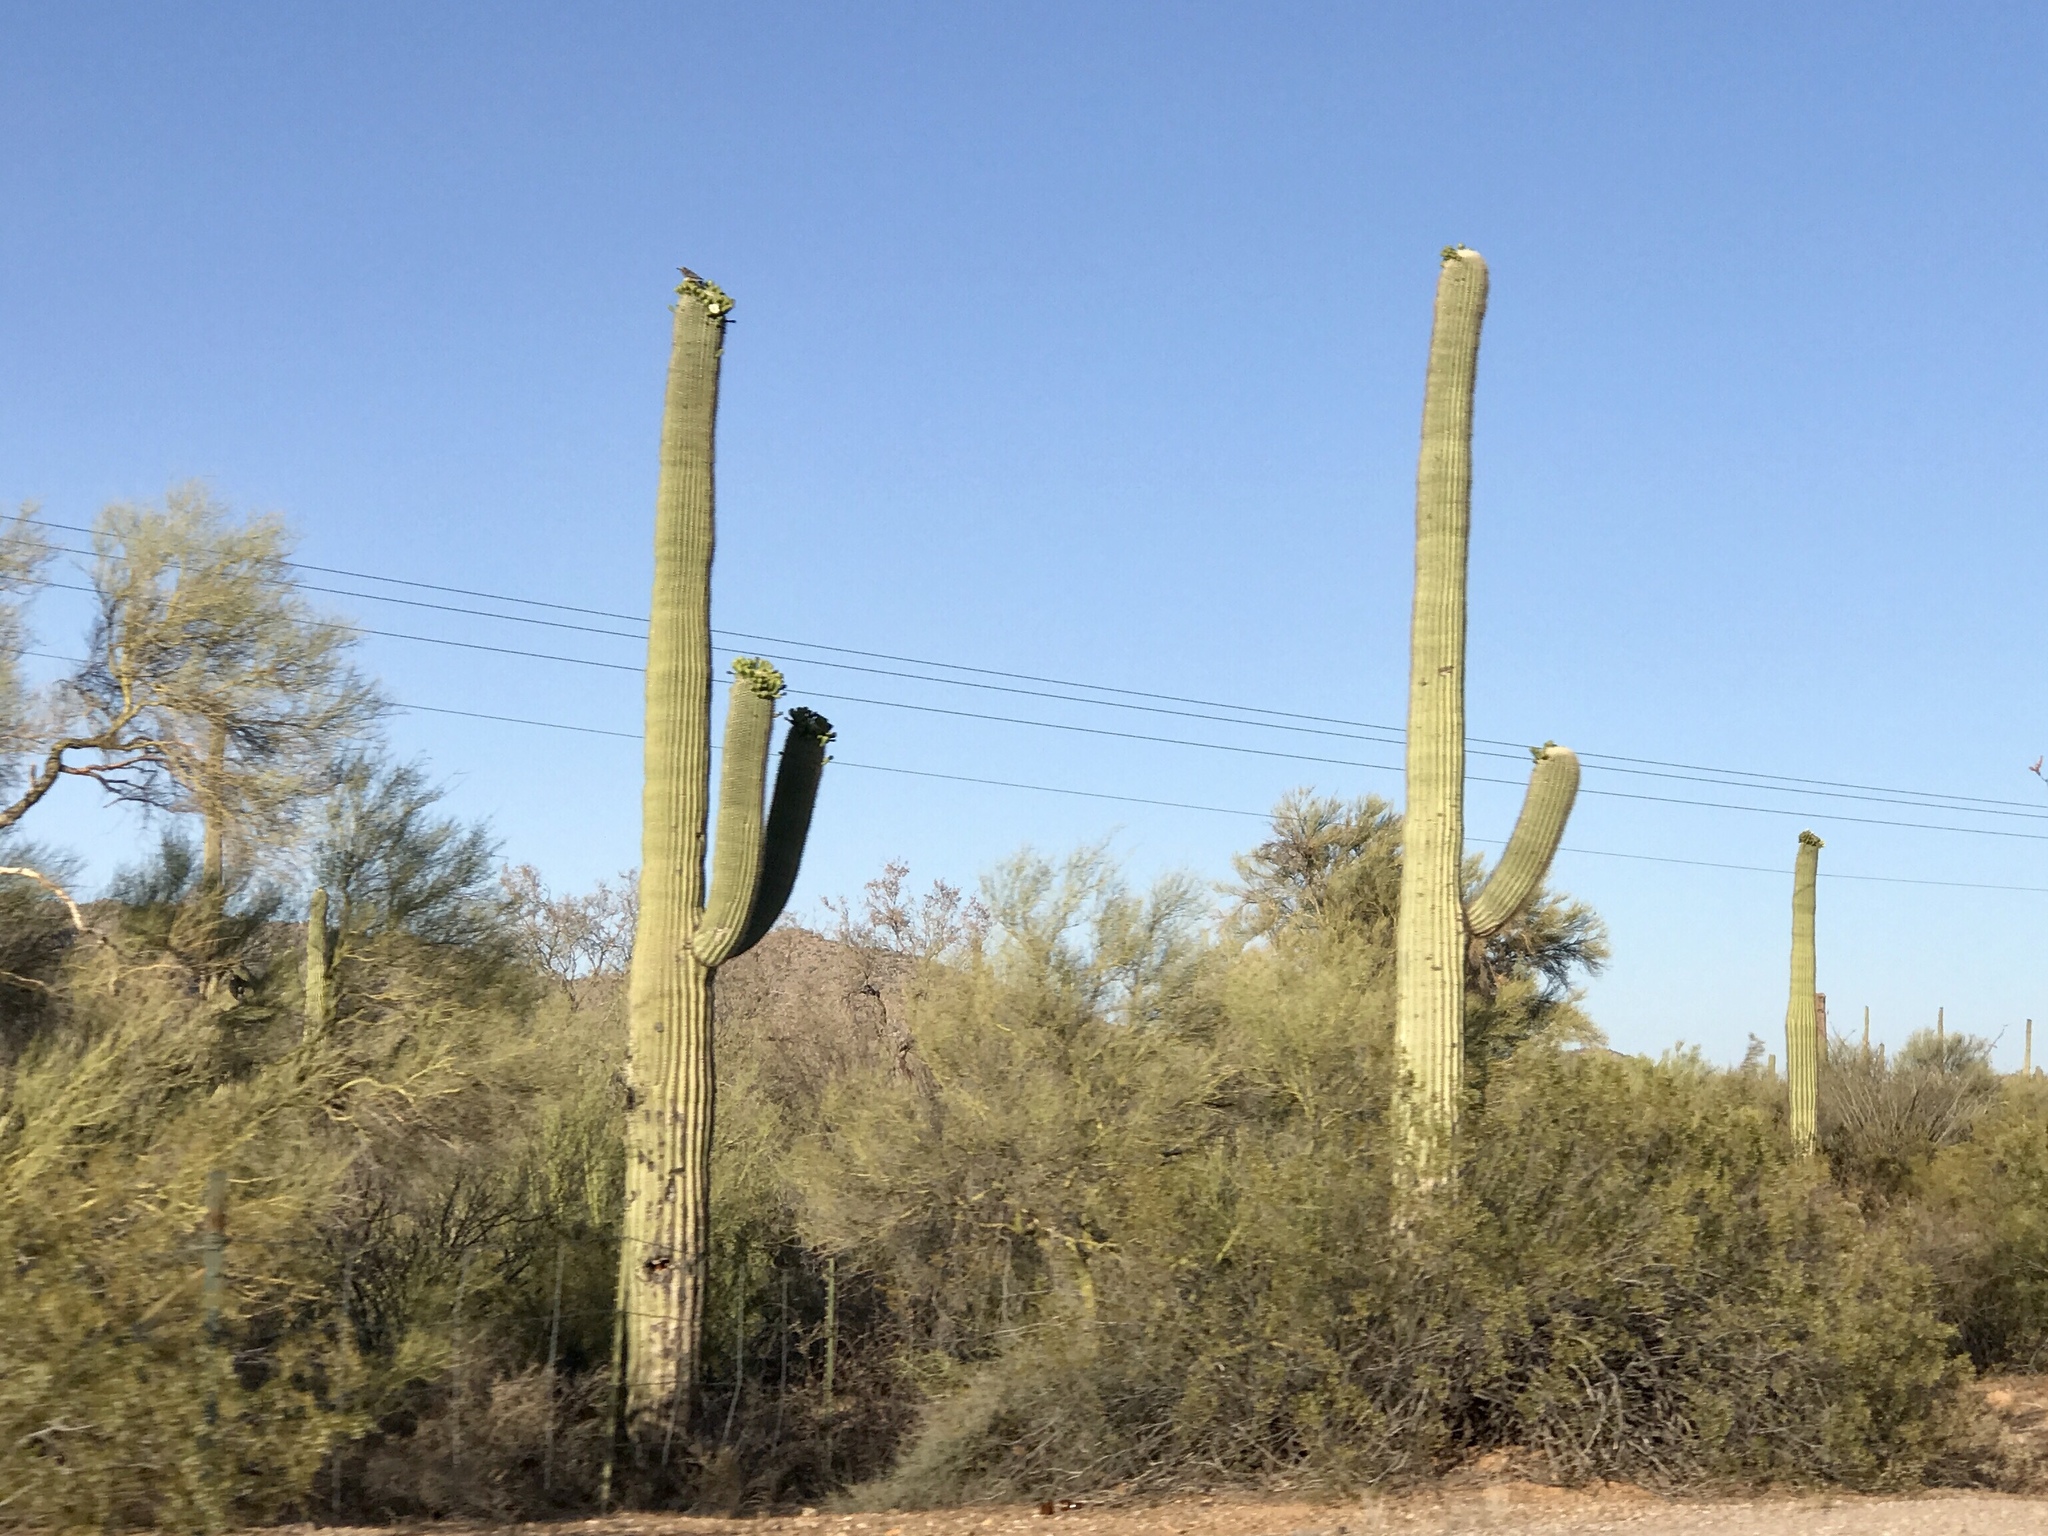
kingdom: Plantae
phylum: Tracheophyta
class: Magnoliopsida
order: Caryophyllales
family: Cactaceae
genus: Carnegiea
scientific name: Carnegiea gigantea
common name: Saguaro
